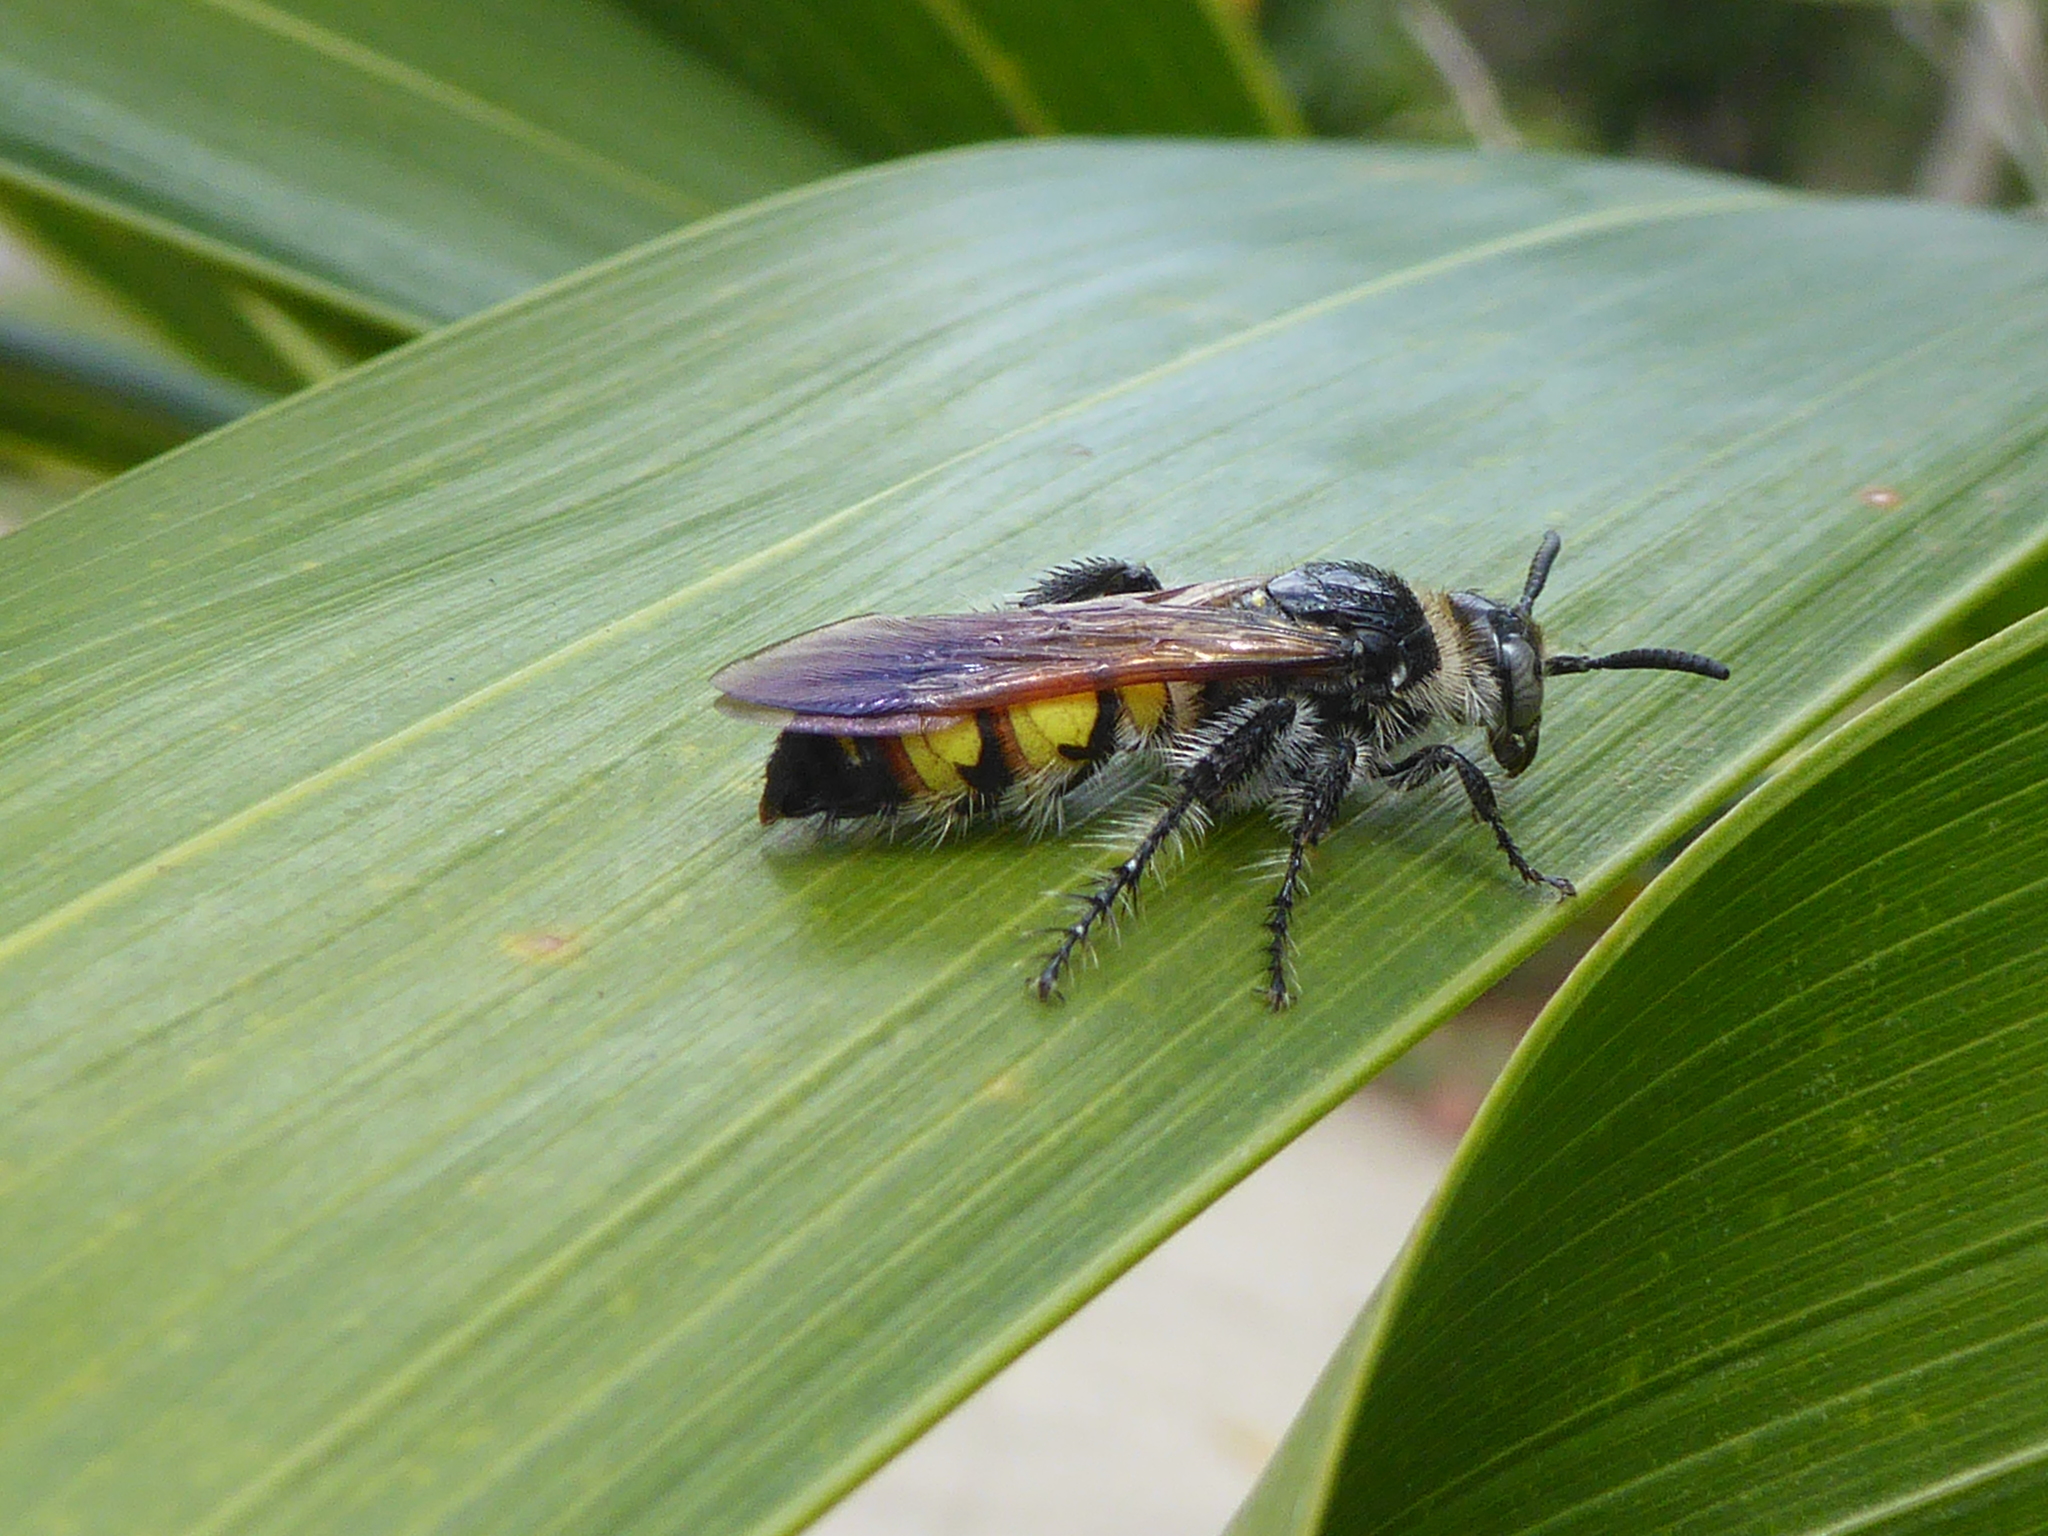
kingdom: Animalia
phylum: Arthropoda
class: Insecta
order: Hymenoptera
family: Scoliidae
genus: Dielis
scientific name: Dielis
